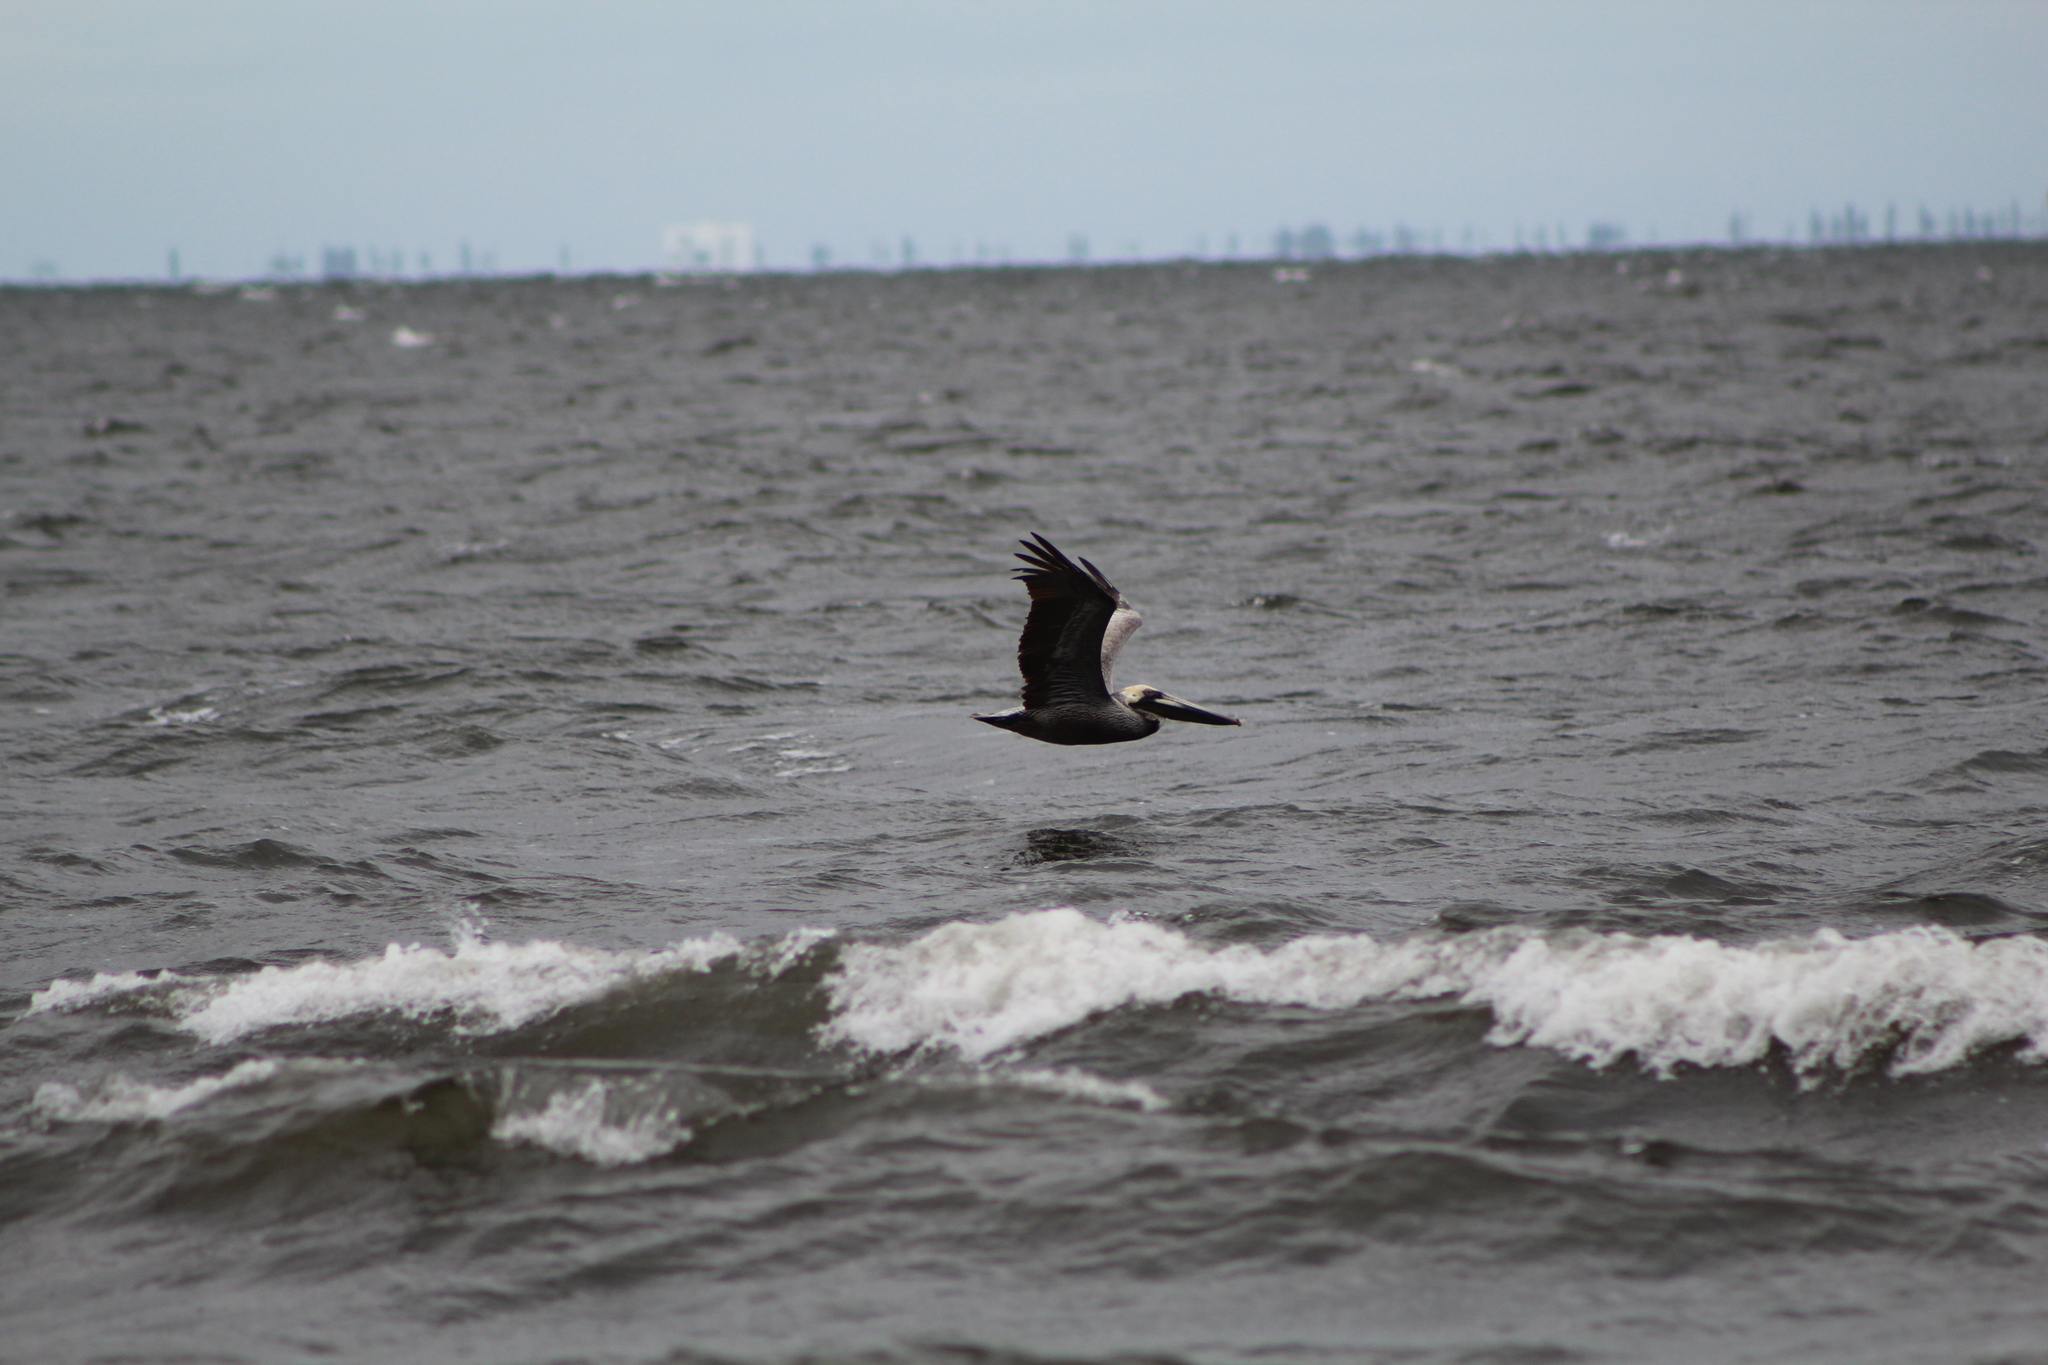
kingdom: Animalia
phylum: Chordata
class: Aves
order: Pelecaniformes
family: Pelecanidae
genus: Pelecanus
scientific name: Pelecanus occidentalis
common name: Brown pelican
